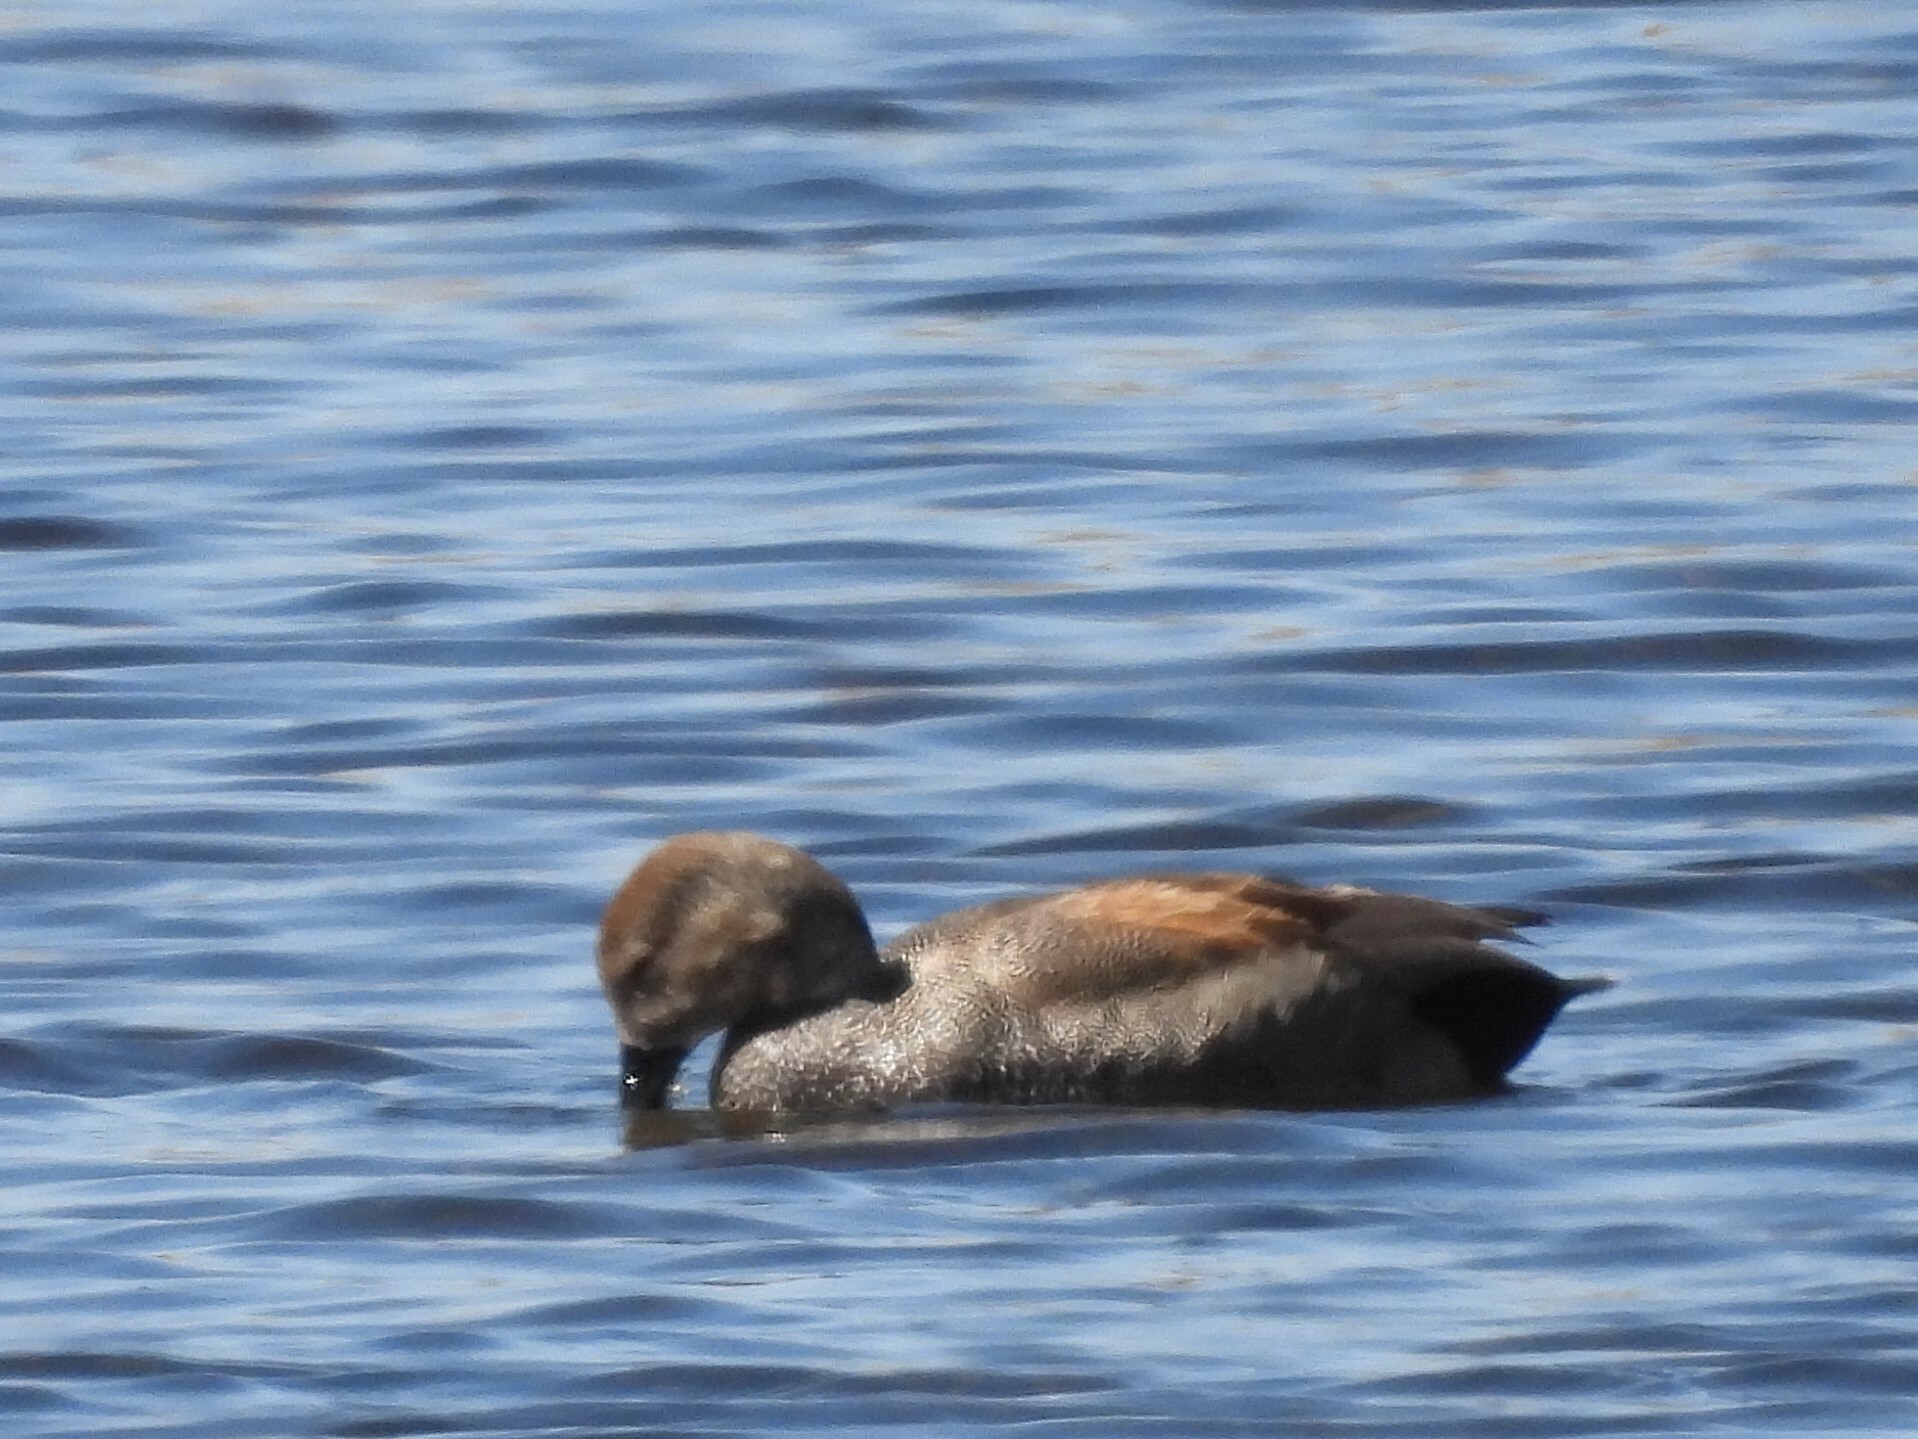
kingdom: Animalia
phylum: Chordata
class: Aves
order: Anseriformes
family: Anatidae
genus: Mareca
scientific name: Mareca strepera
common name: Gadwall
